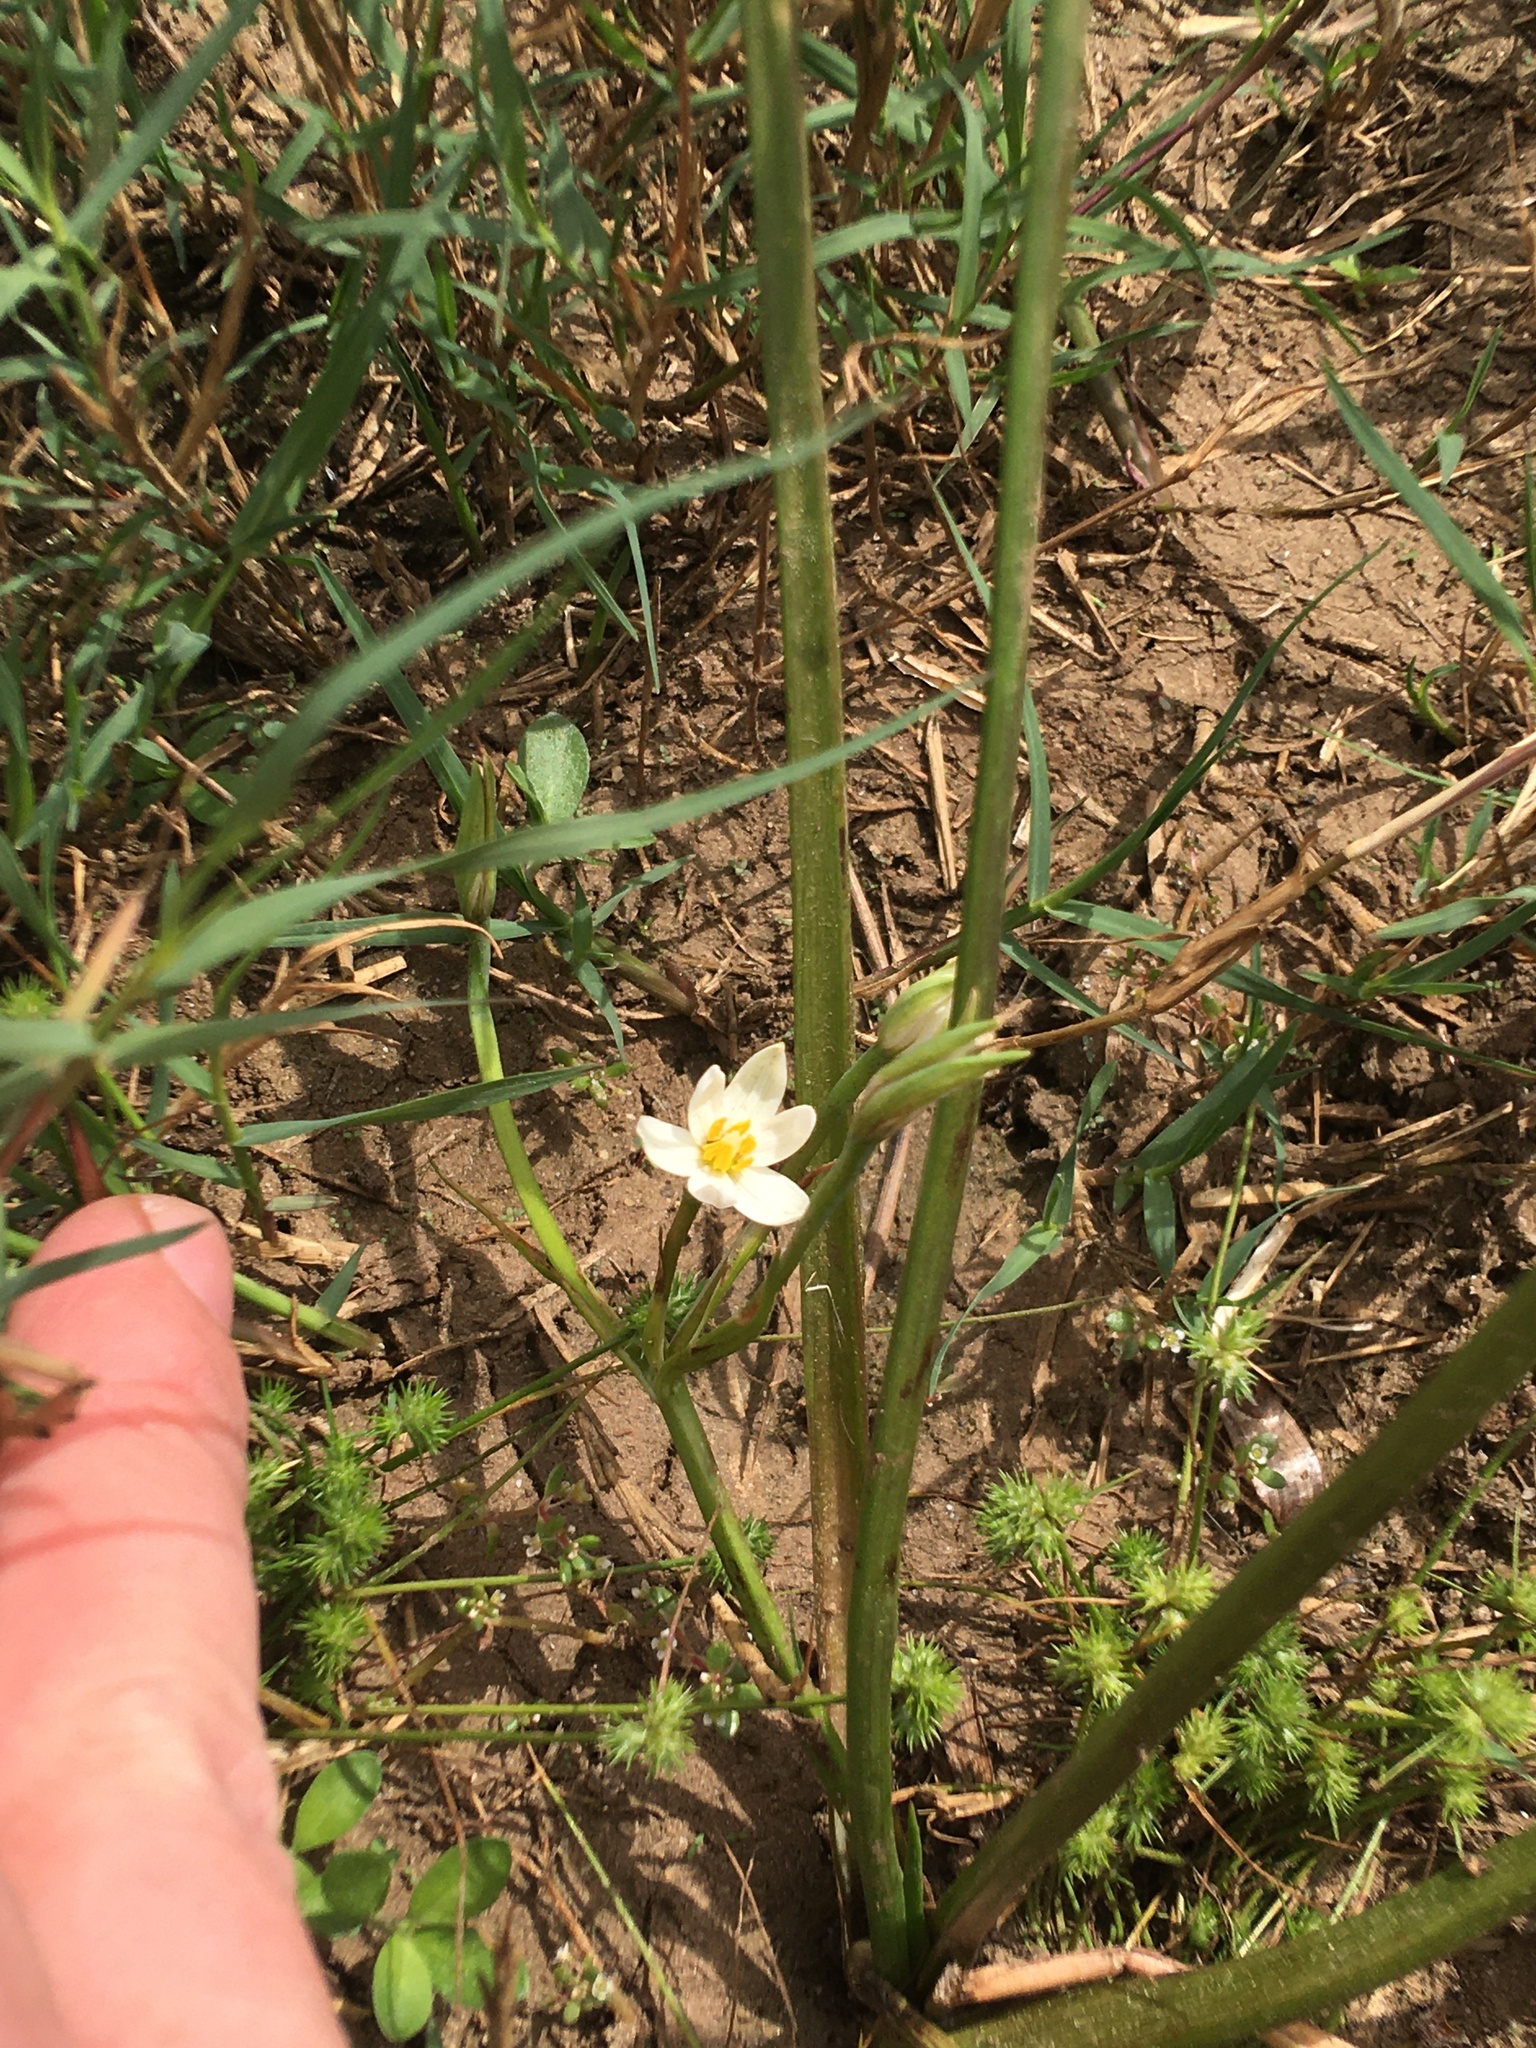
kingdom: Plantae
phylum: Tracheophyta
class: Liliopsida
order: Asparagales
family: Hypoxidaceae
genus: Pauridia
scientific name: Pauridia aquatica
